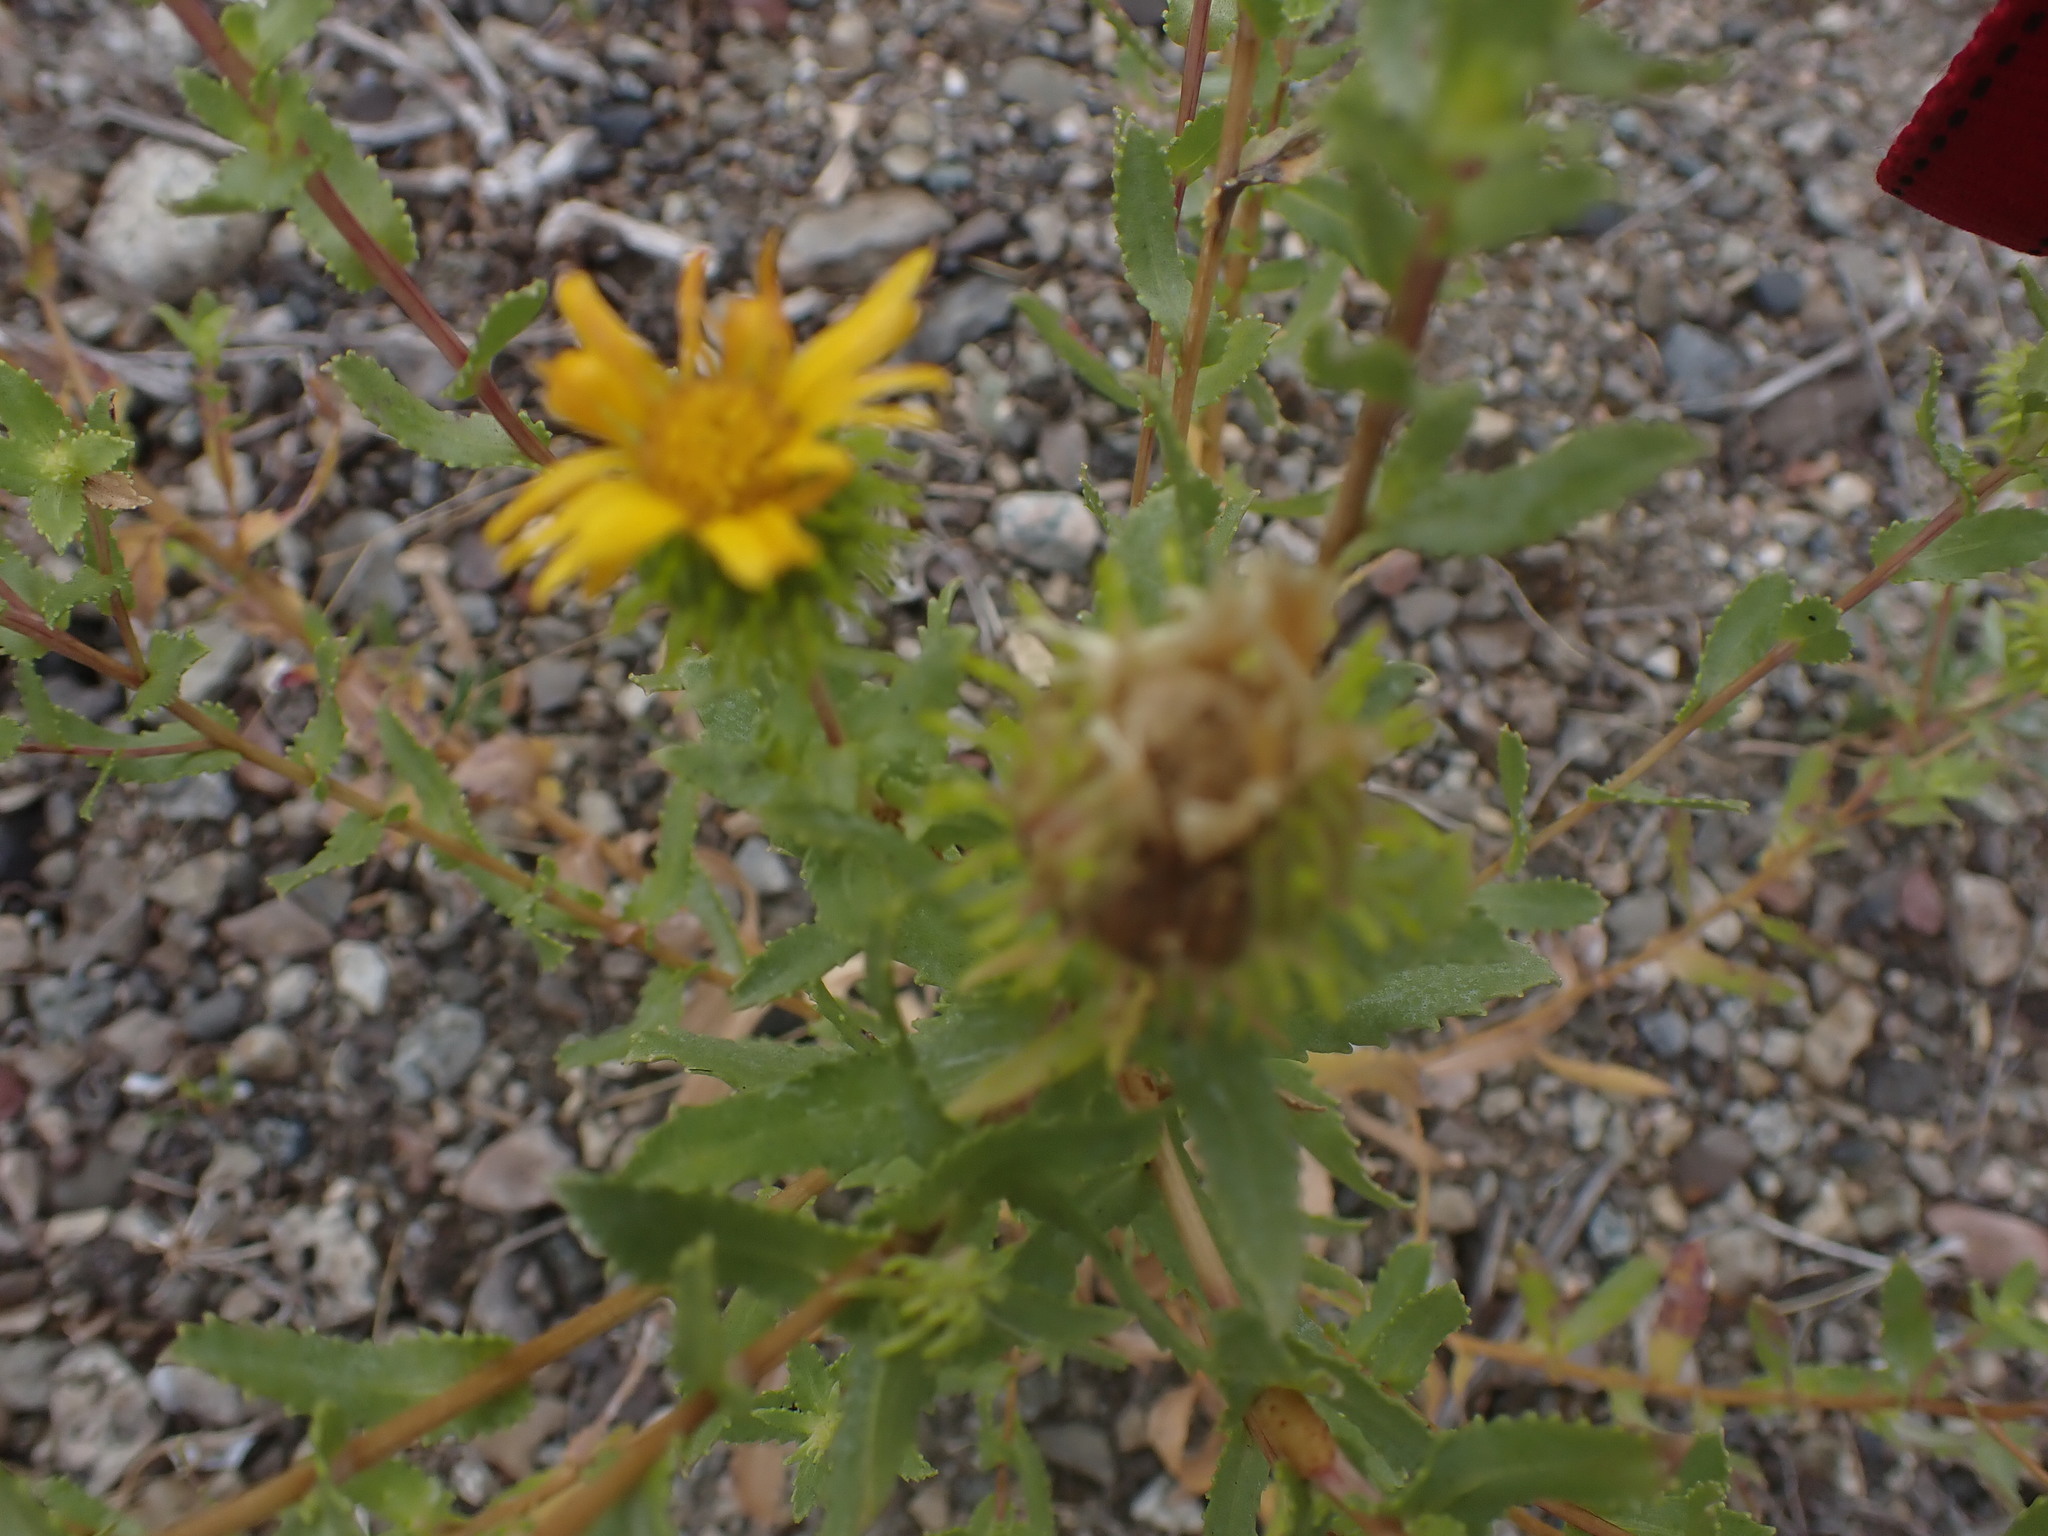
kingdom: Plantae
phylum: Tracheophyta
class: Magnoliopsida
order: Asterales
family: Asteraceae
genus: Grindelia
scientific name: Grindelia squarrosa
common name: Curly-cup gumweed
